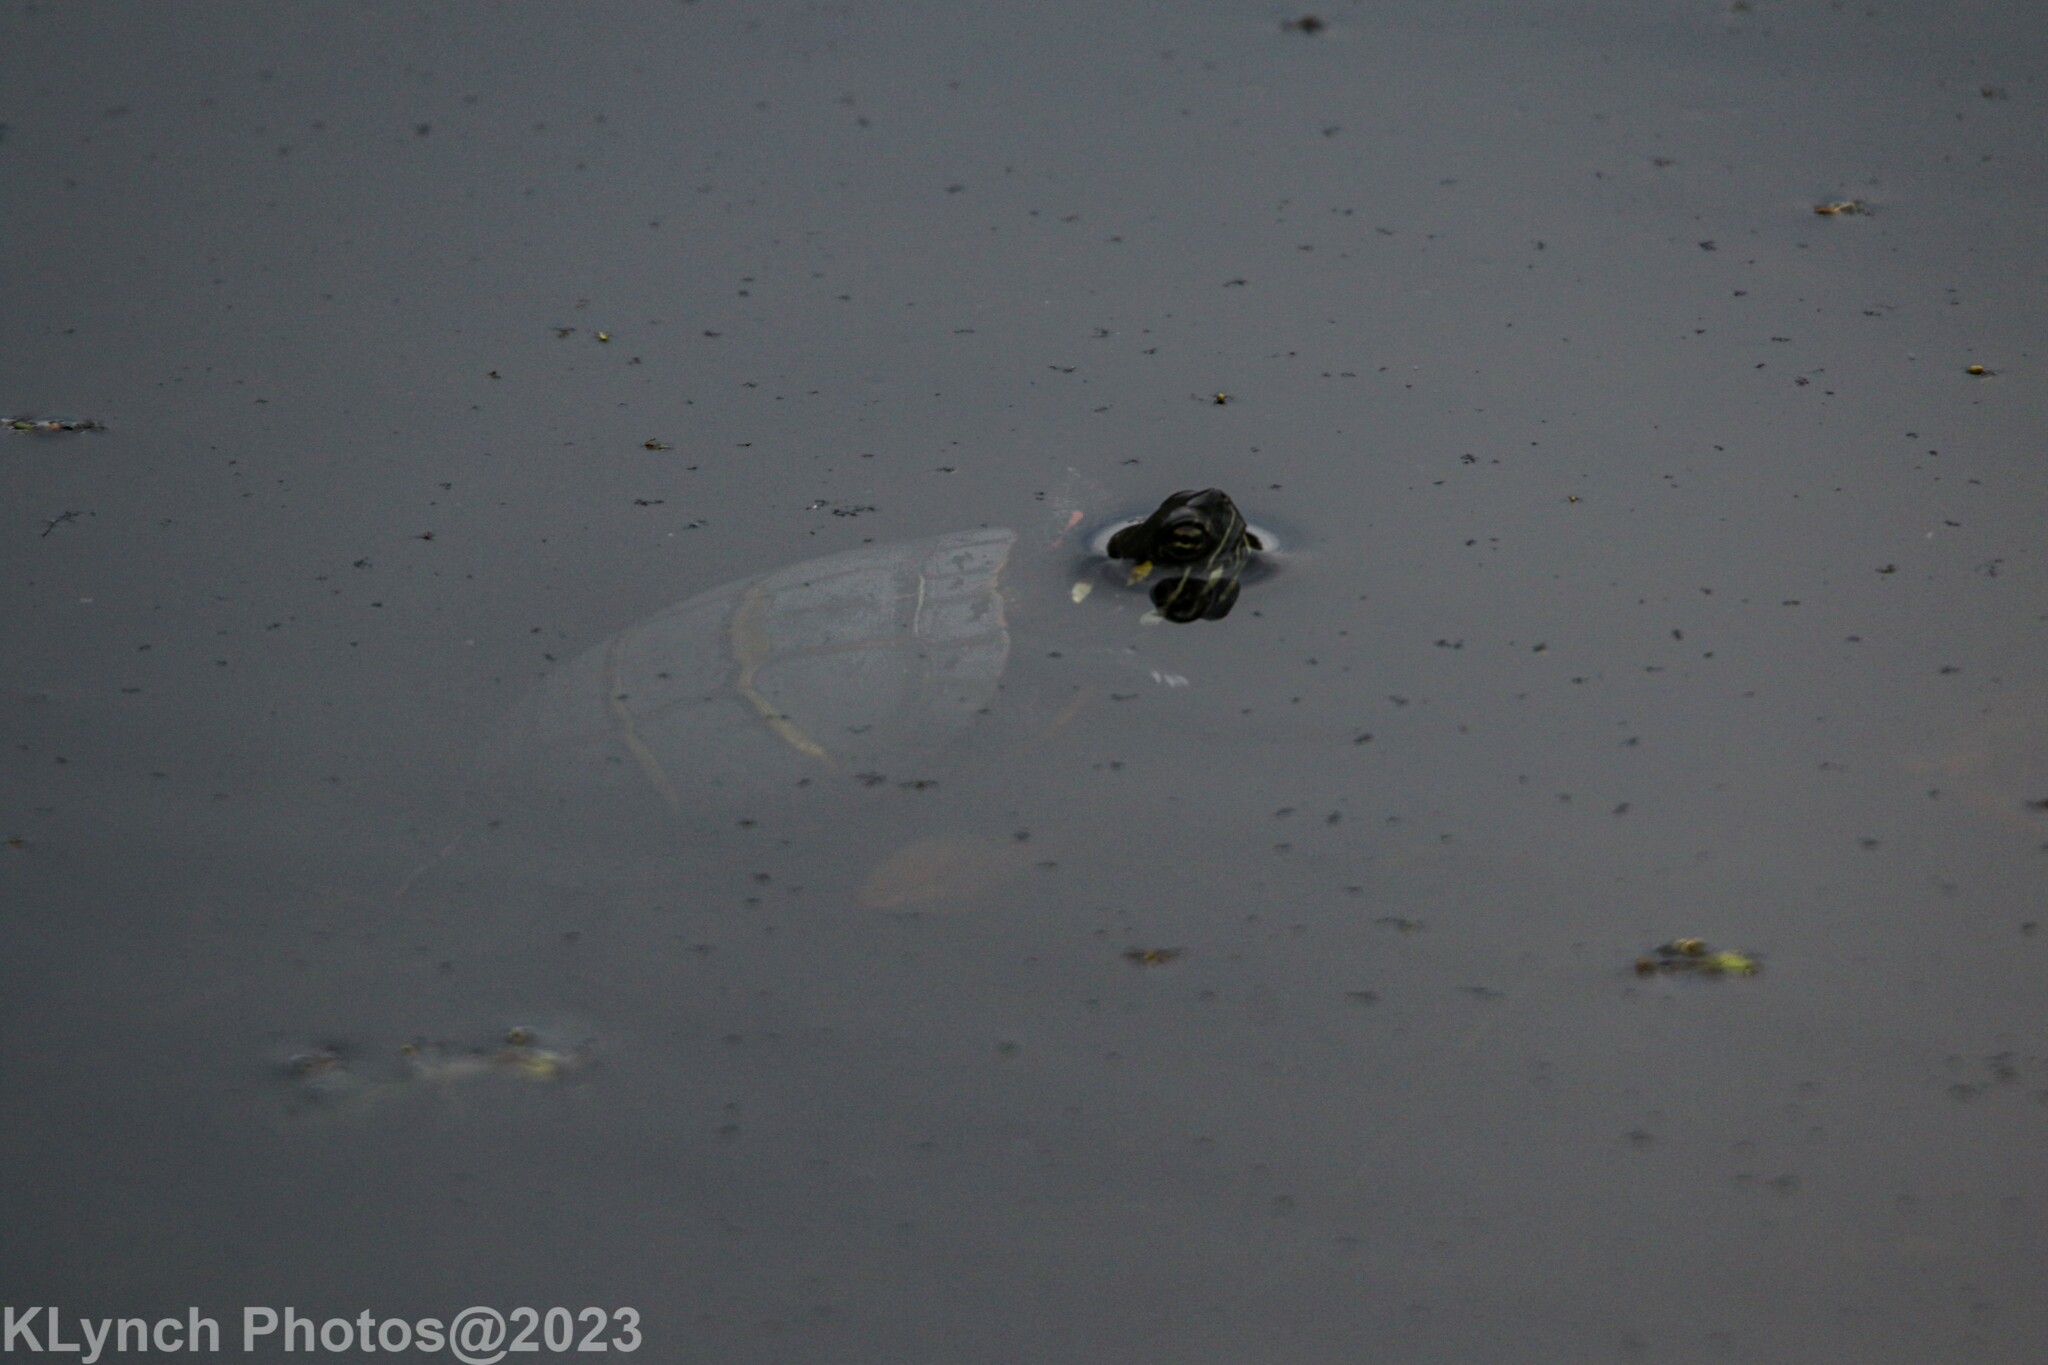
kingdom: Animalia
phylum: Chordata
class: Testudines
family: Emydidae
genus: Chrysemys
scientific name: Chrysemys picta
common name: Painted turtle
